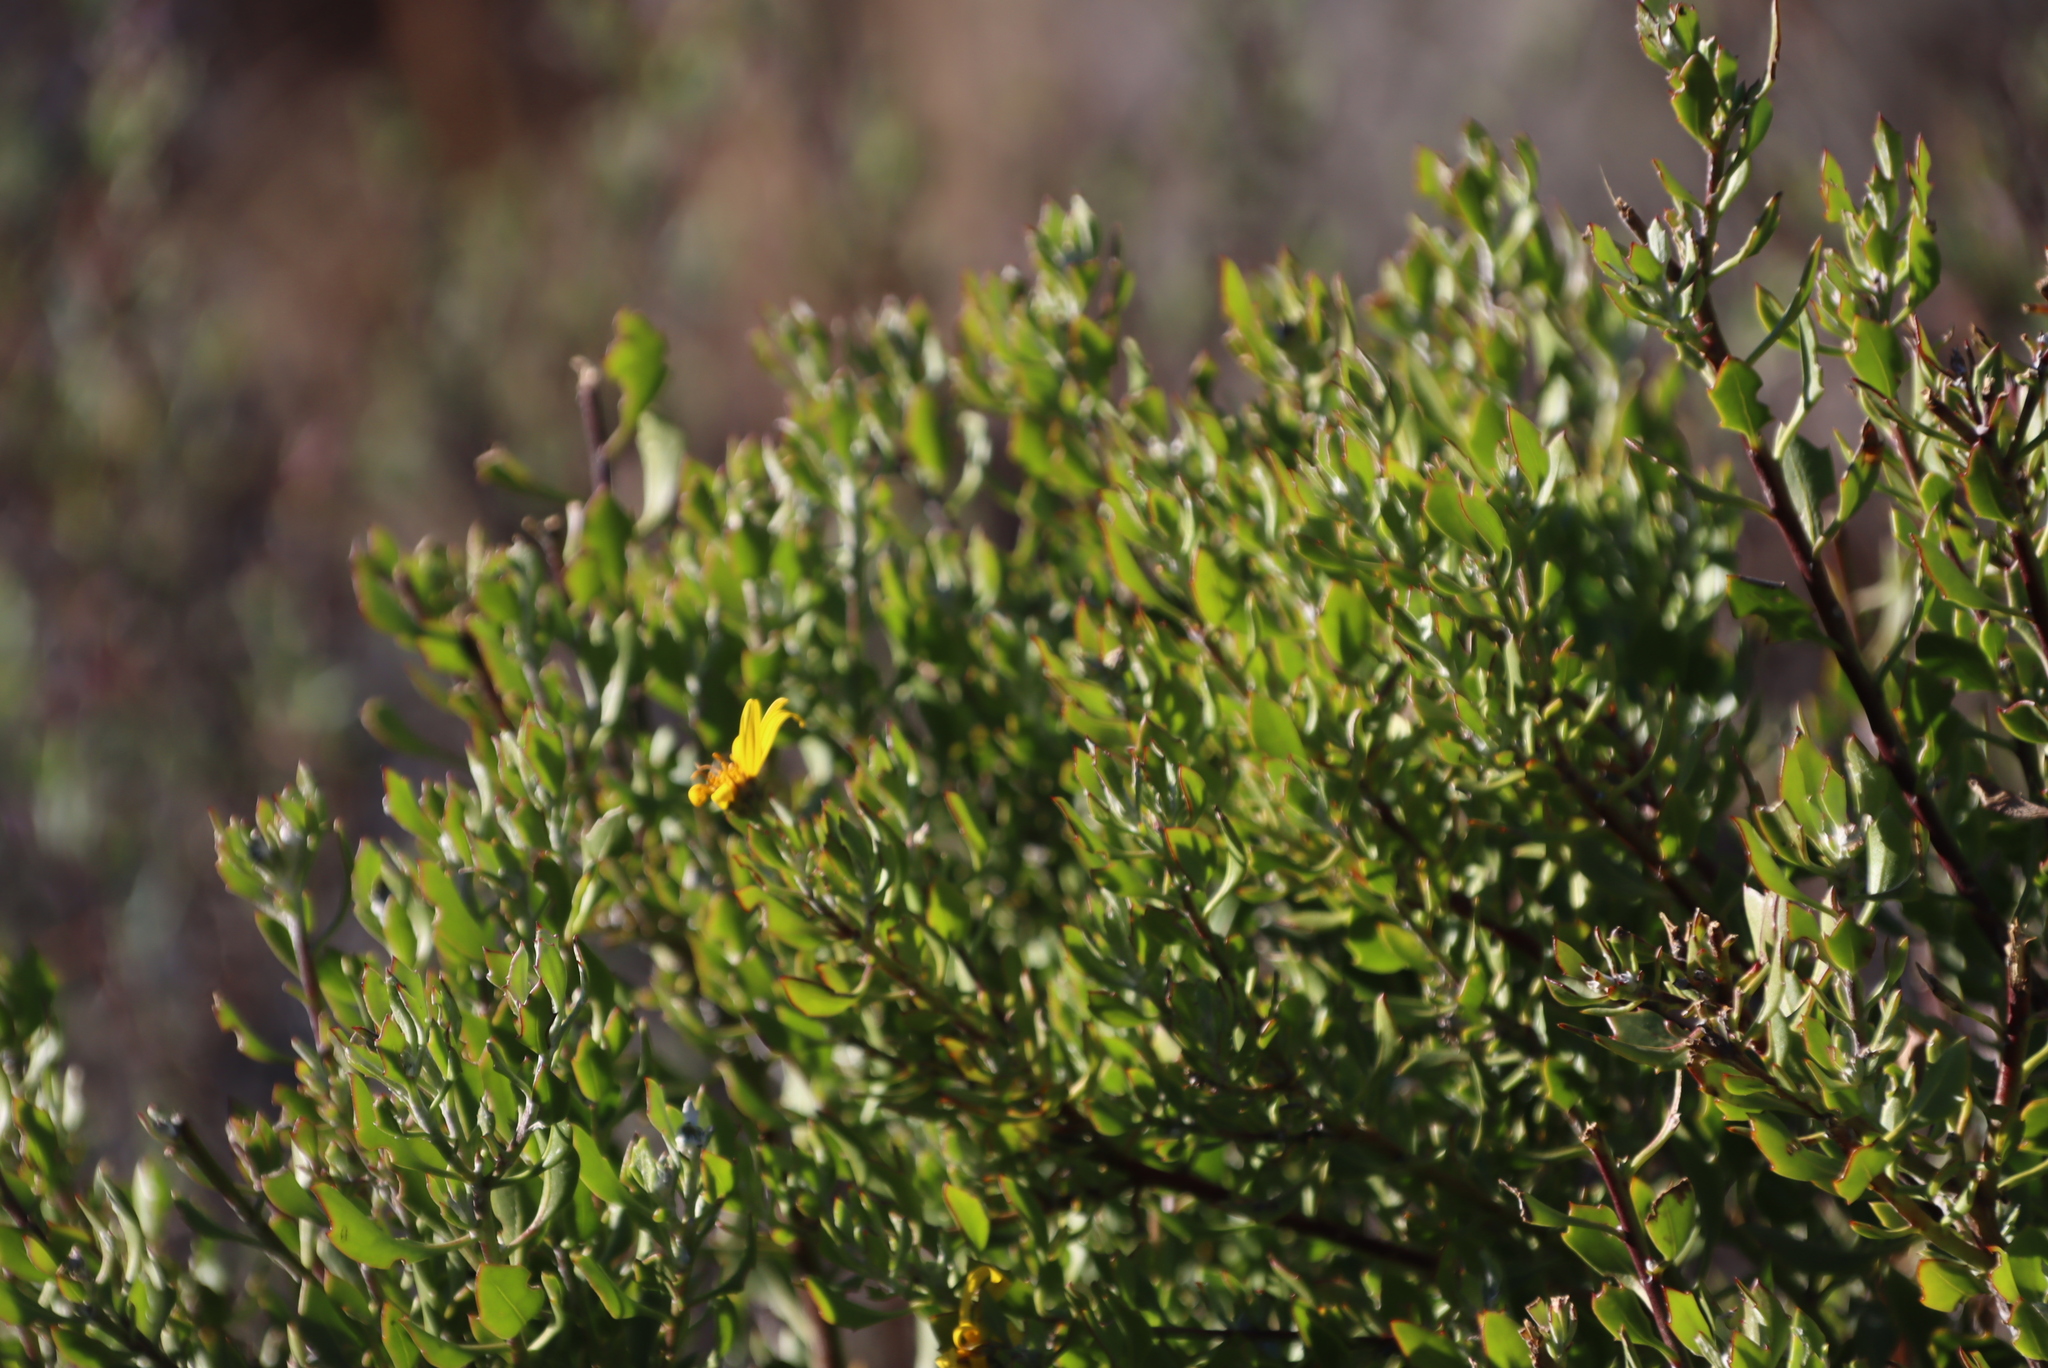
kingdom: Plantae
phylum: Tracheophyta
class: Magnoliopsida
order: Asterales
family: Asteraceae
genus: Osteospermum
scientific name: Osteospermum moniliferum
